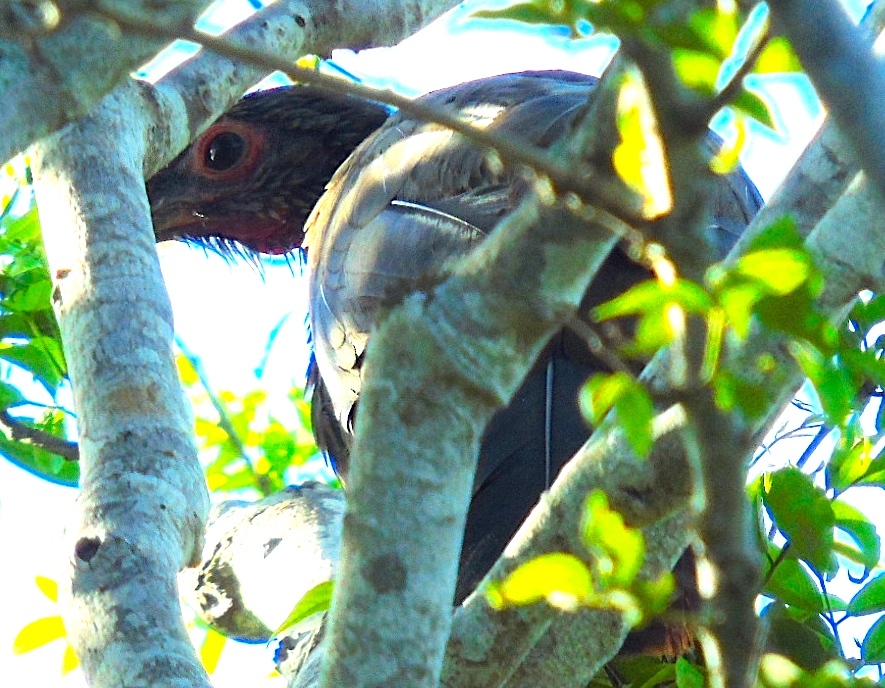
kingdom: Animalia
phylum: Chordata
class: Aves
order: Galliformes
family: Cracidae
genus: Ortalis
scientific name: Ortalis wagleri
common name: Rufous-bellied chachalaca
